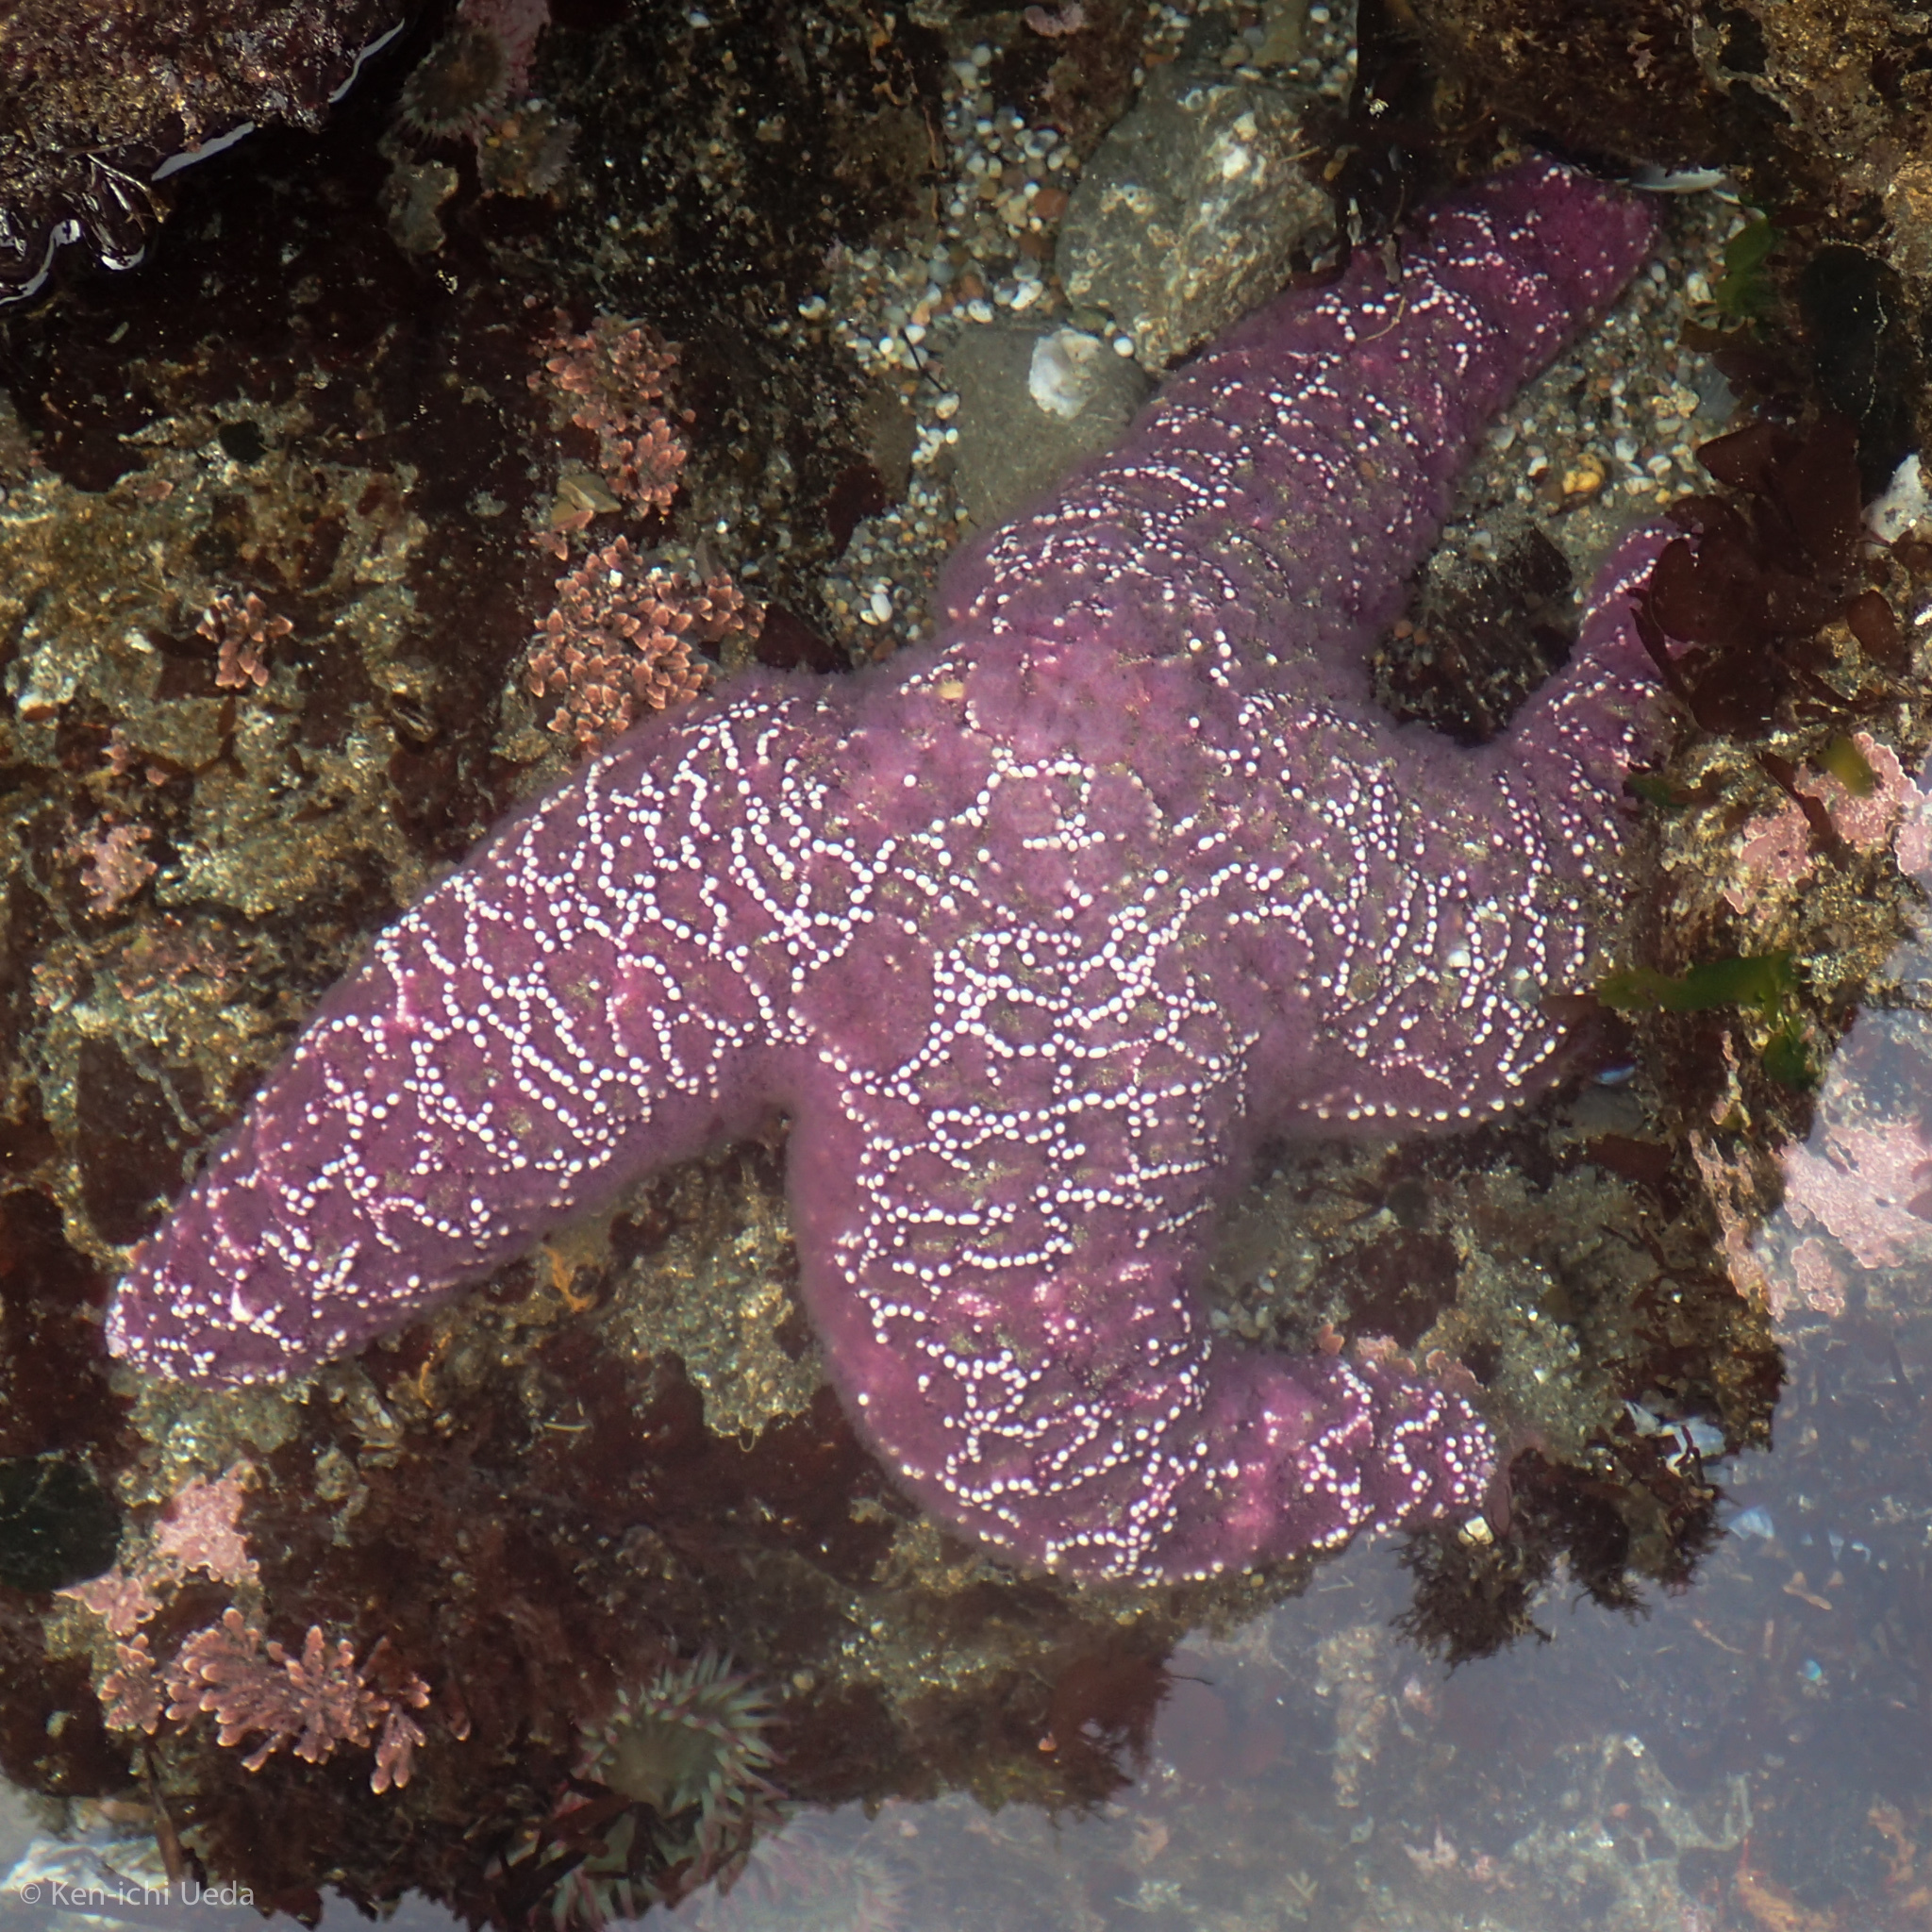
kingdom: Animalia
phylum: Echinodermata
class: Asteroidea
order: Forcipulatida
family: Asteriidae
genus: Pisaster
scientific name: Pisaster ochraceus
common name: Ochre stars
